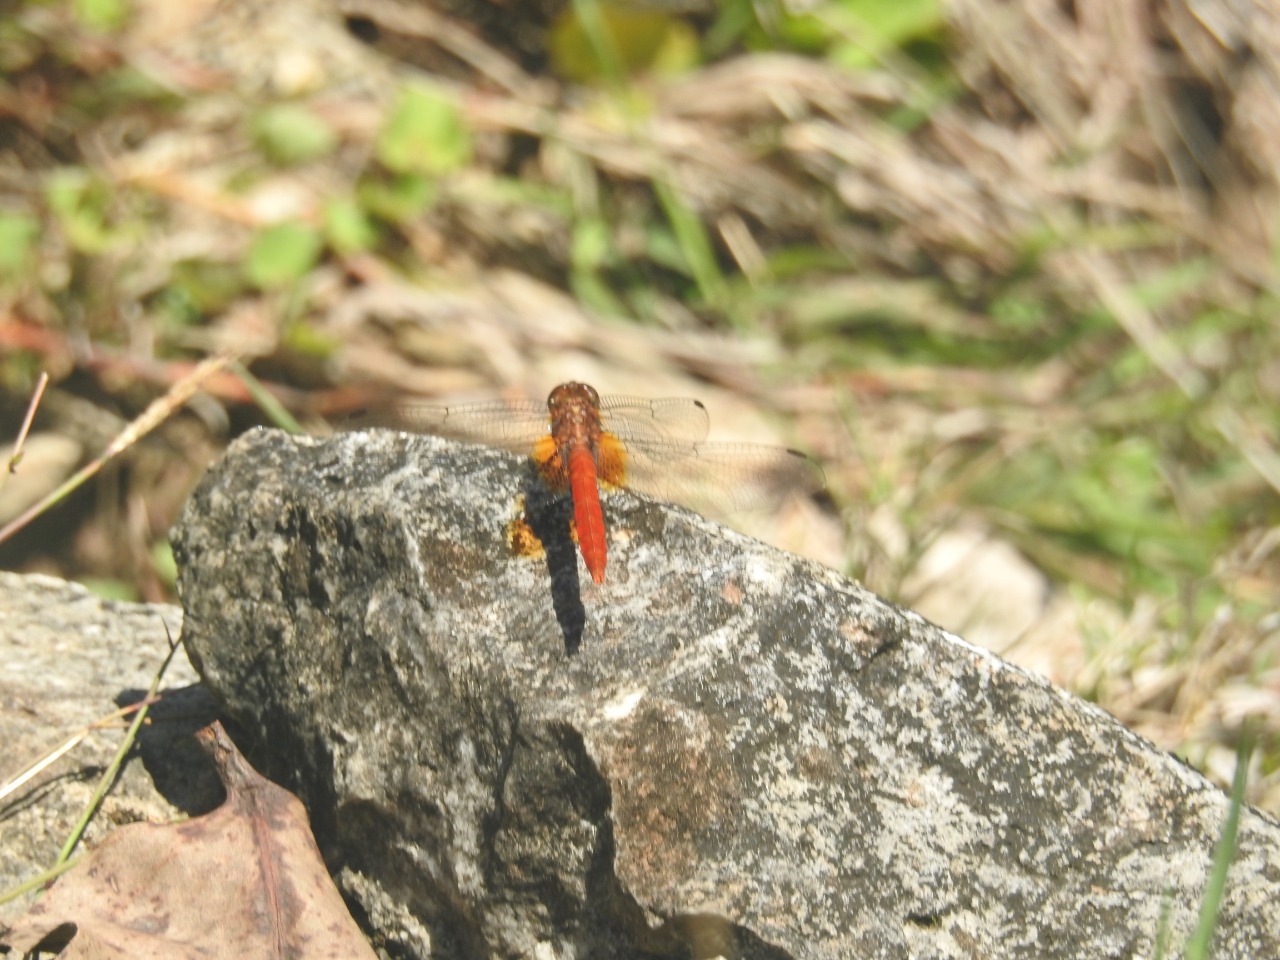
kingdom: Animalia
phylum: Arthropoda
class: Insecta
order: Odonata
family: Libellulidae
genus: Orthetrum
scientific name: Orthetrum testaceum
